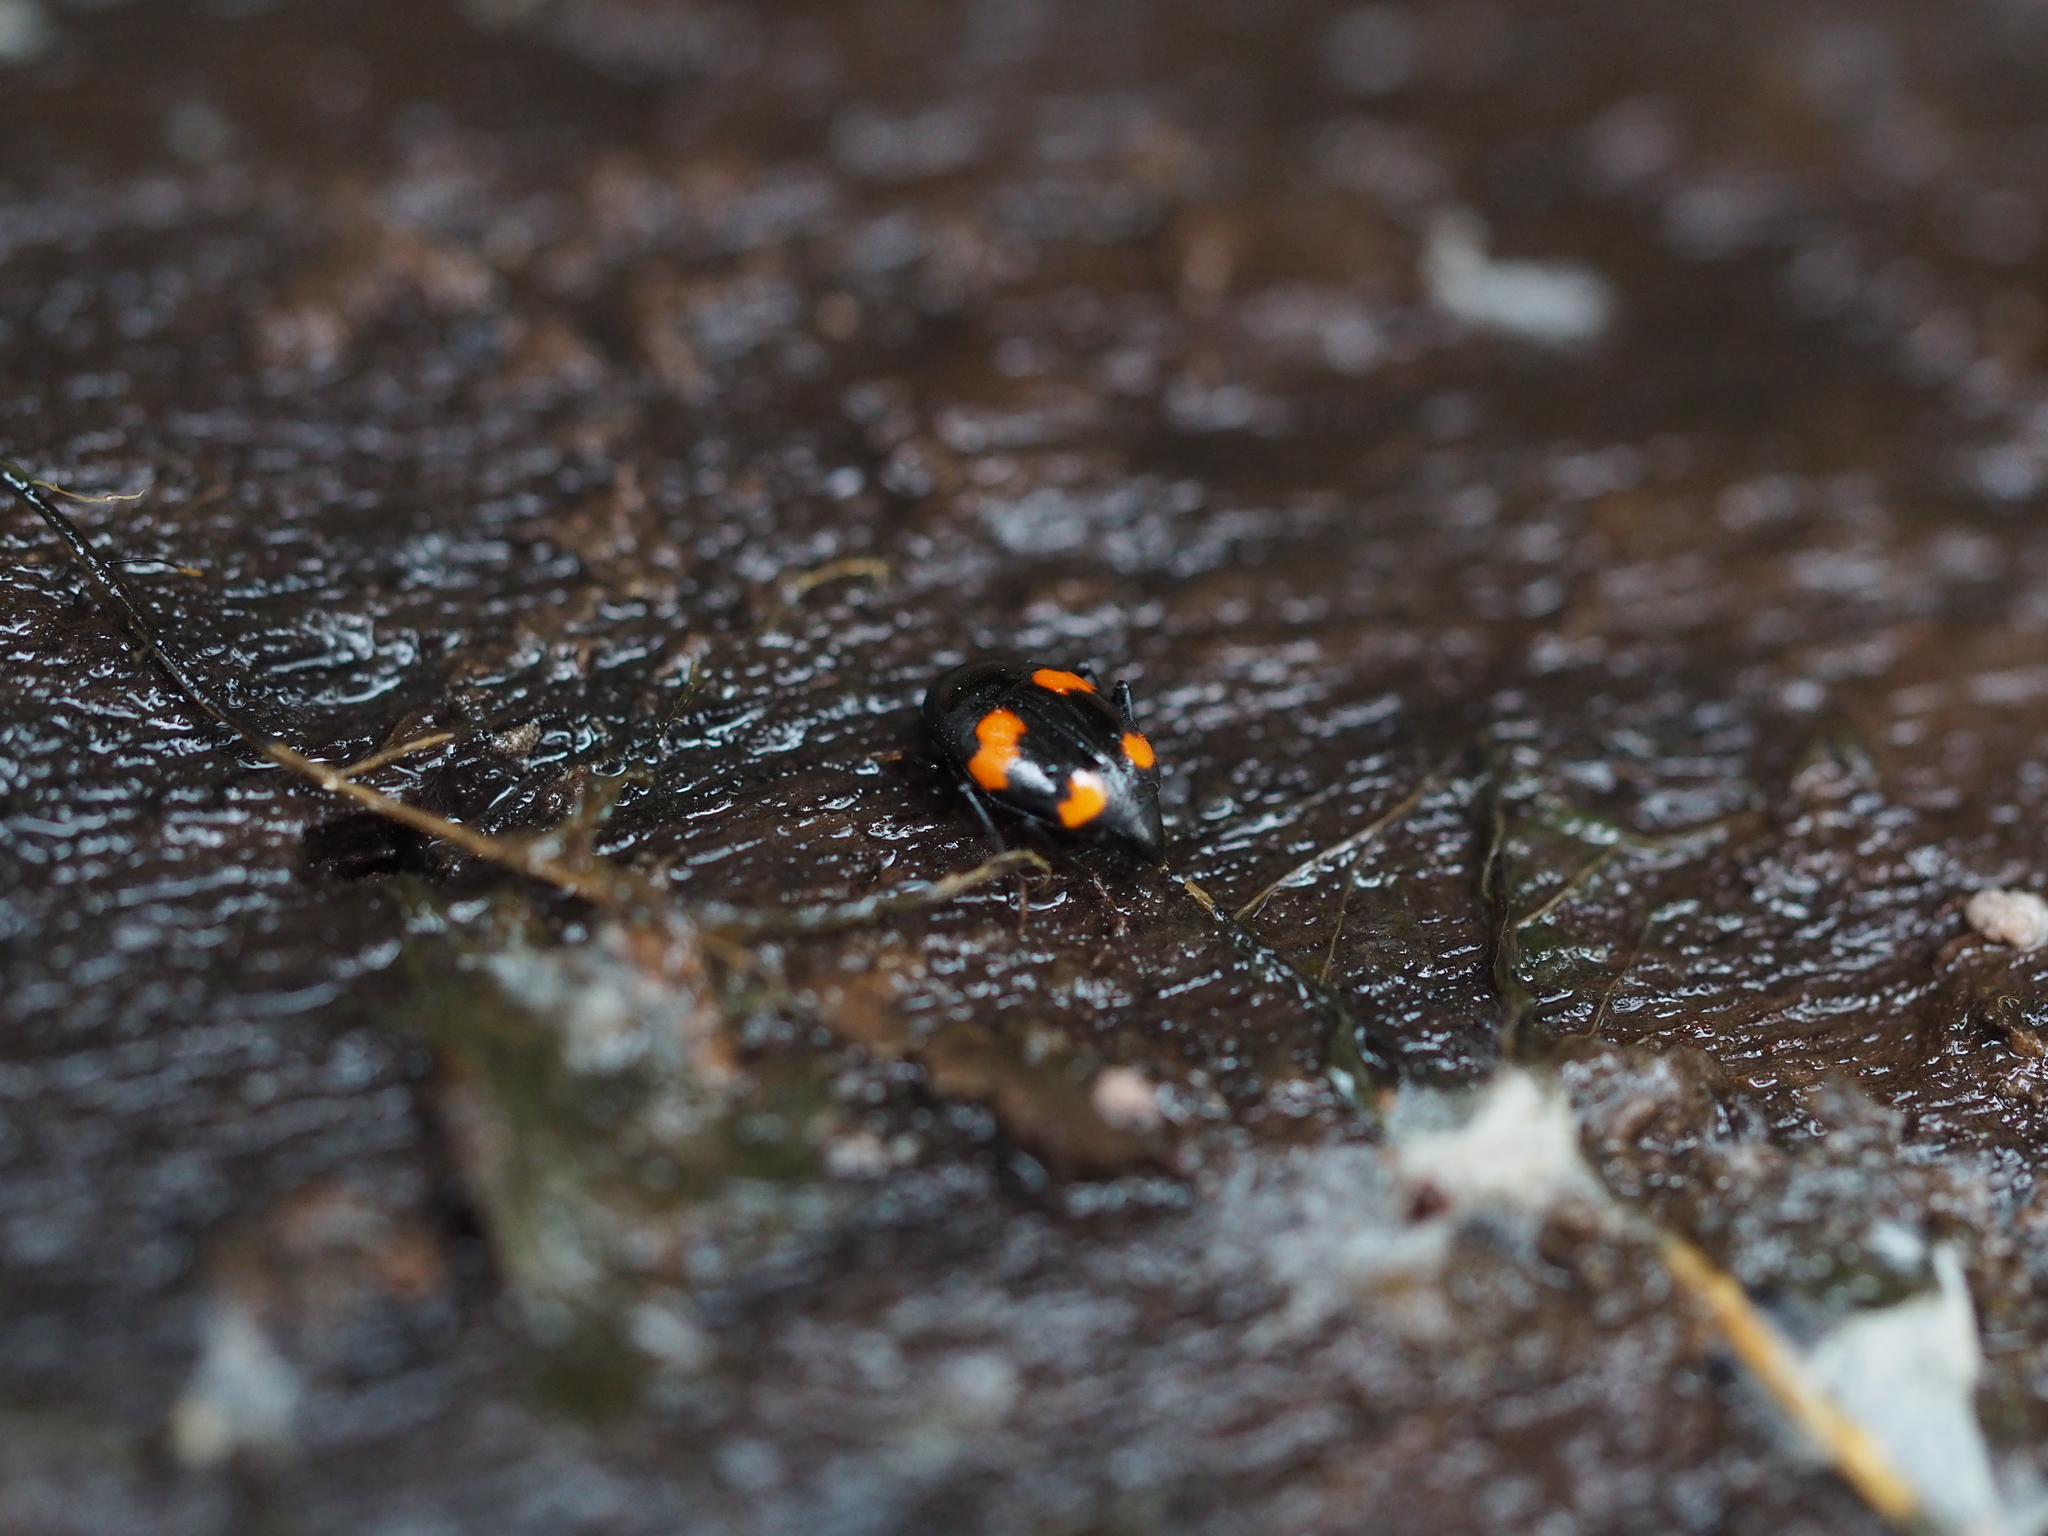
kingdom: Animalia
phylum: Arthropoda
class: Insecta
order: Coleoptera
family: Staphylinidae
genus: Scaphidium
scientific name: Scaphidium quadrimaculatum
